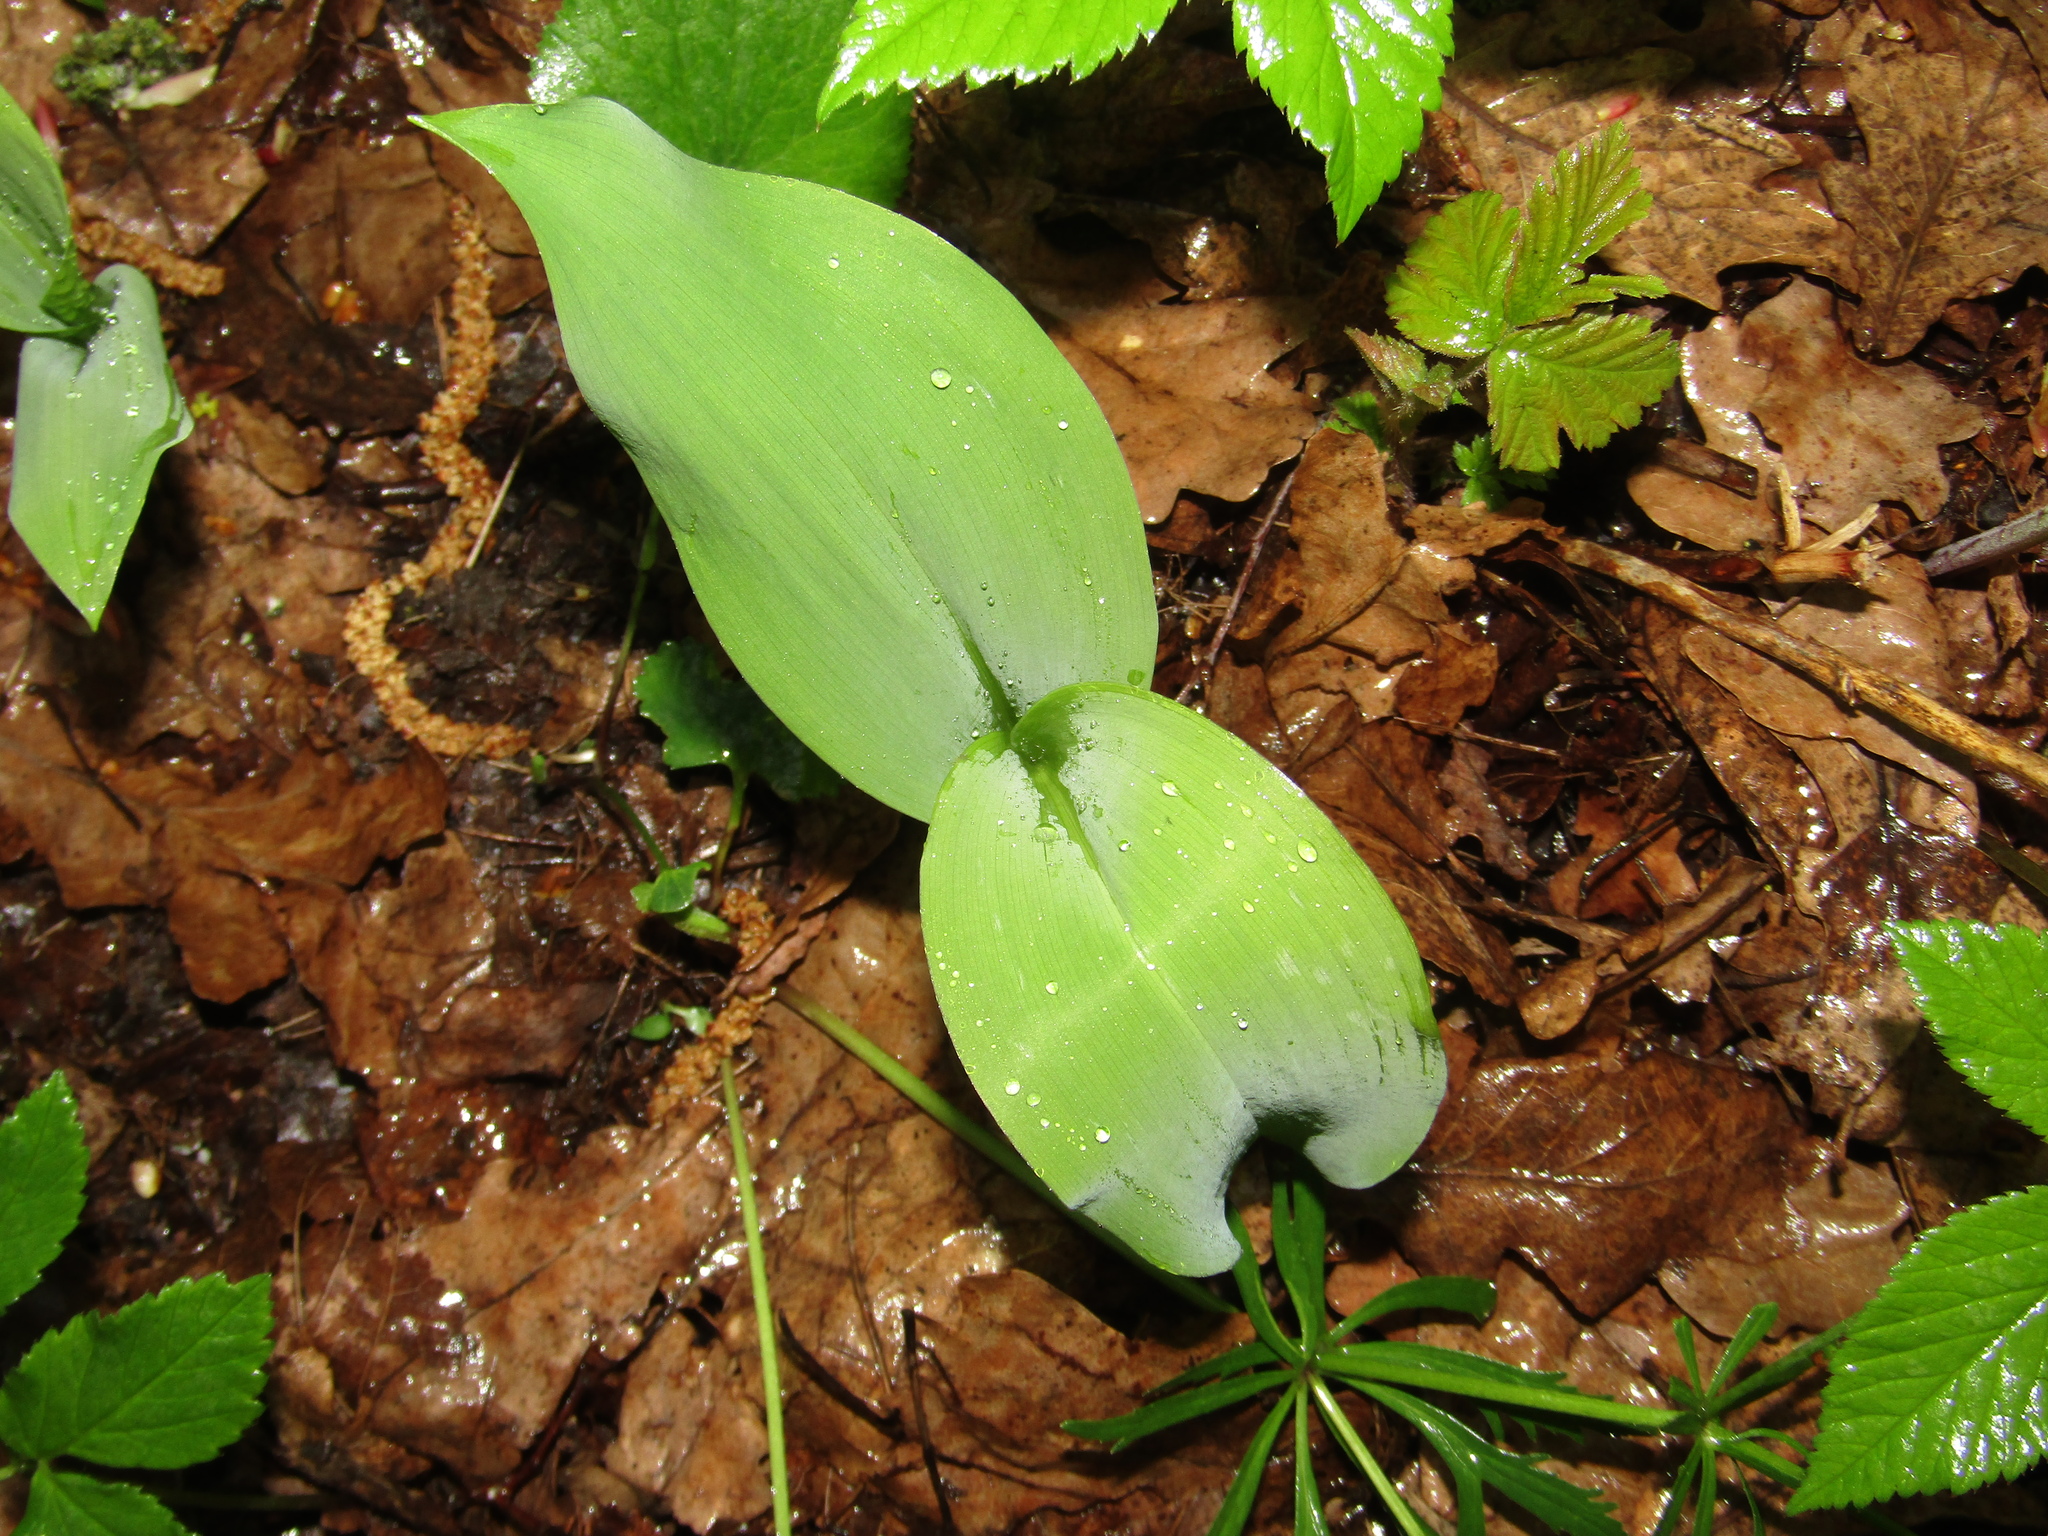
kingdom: Plantae
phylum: Tracheophyta
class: Liliopsida
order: Asparagales
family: Asparagaceae
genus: Convallaria
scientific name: Convallaria majalis
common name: Lily-of-the-valley
